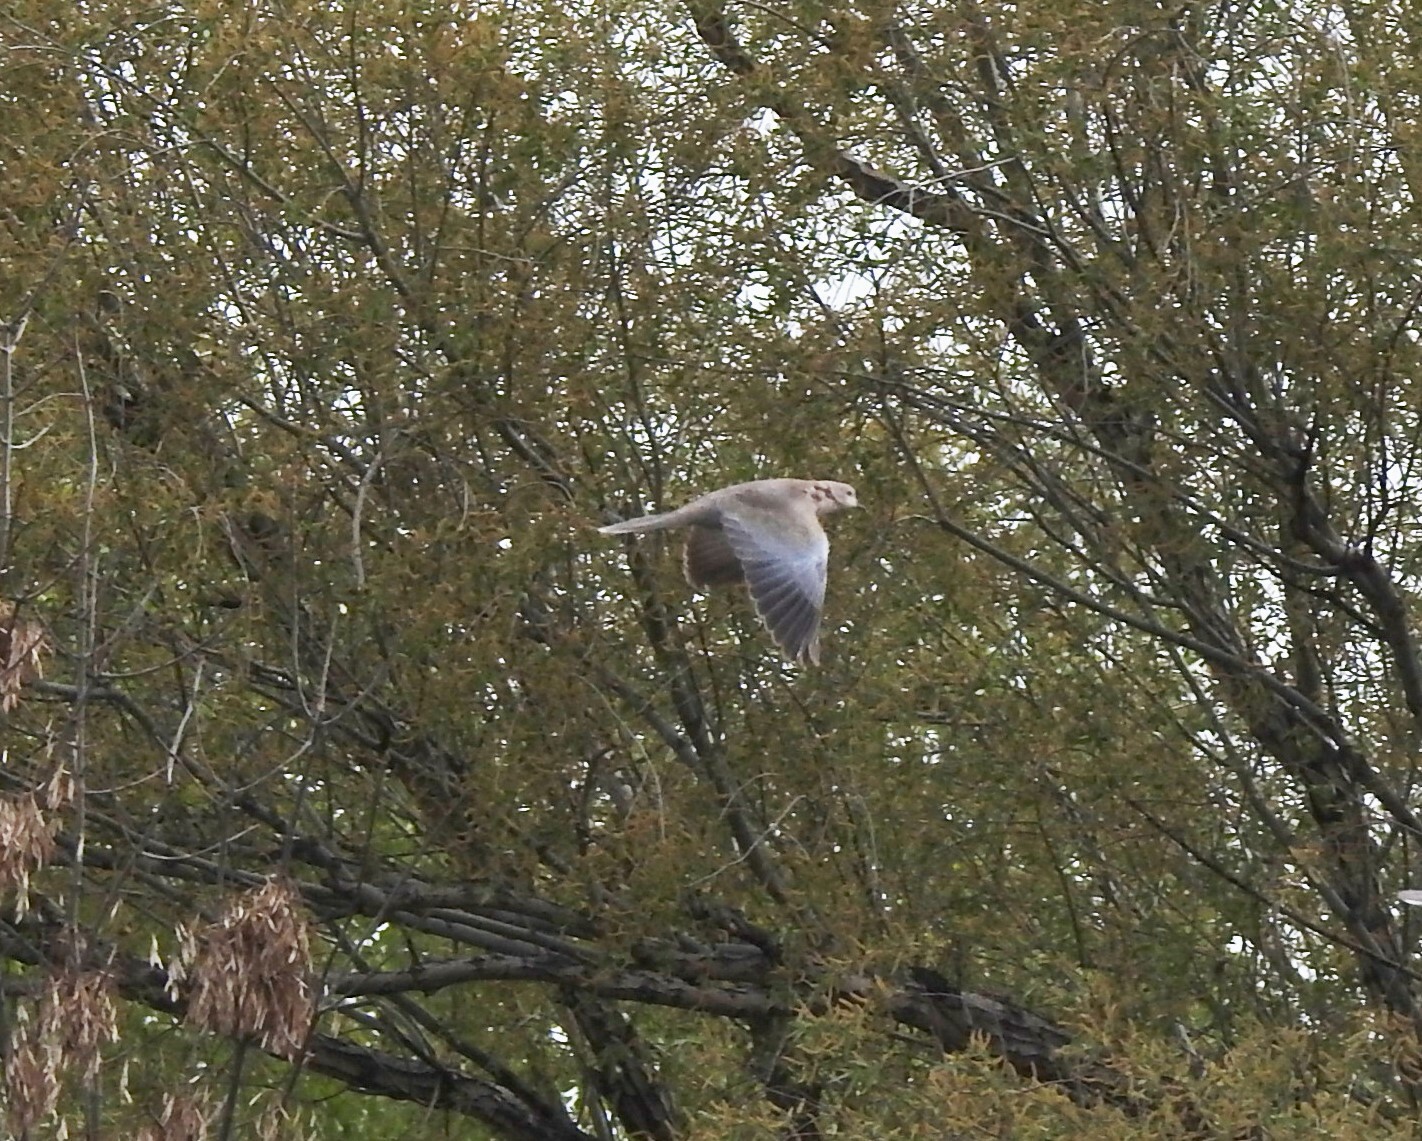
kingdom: Animalia
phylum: Chordata
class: Aves
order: Columbiformes
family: Columbidae
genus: Streptopelia
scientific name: Streptopelia decaocto
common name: Eurasian collared dove
